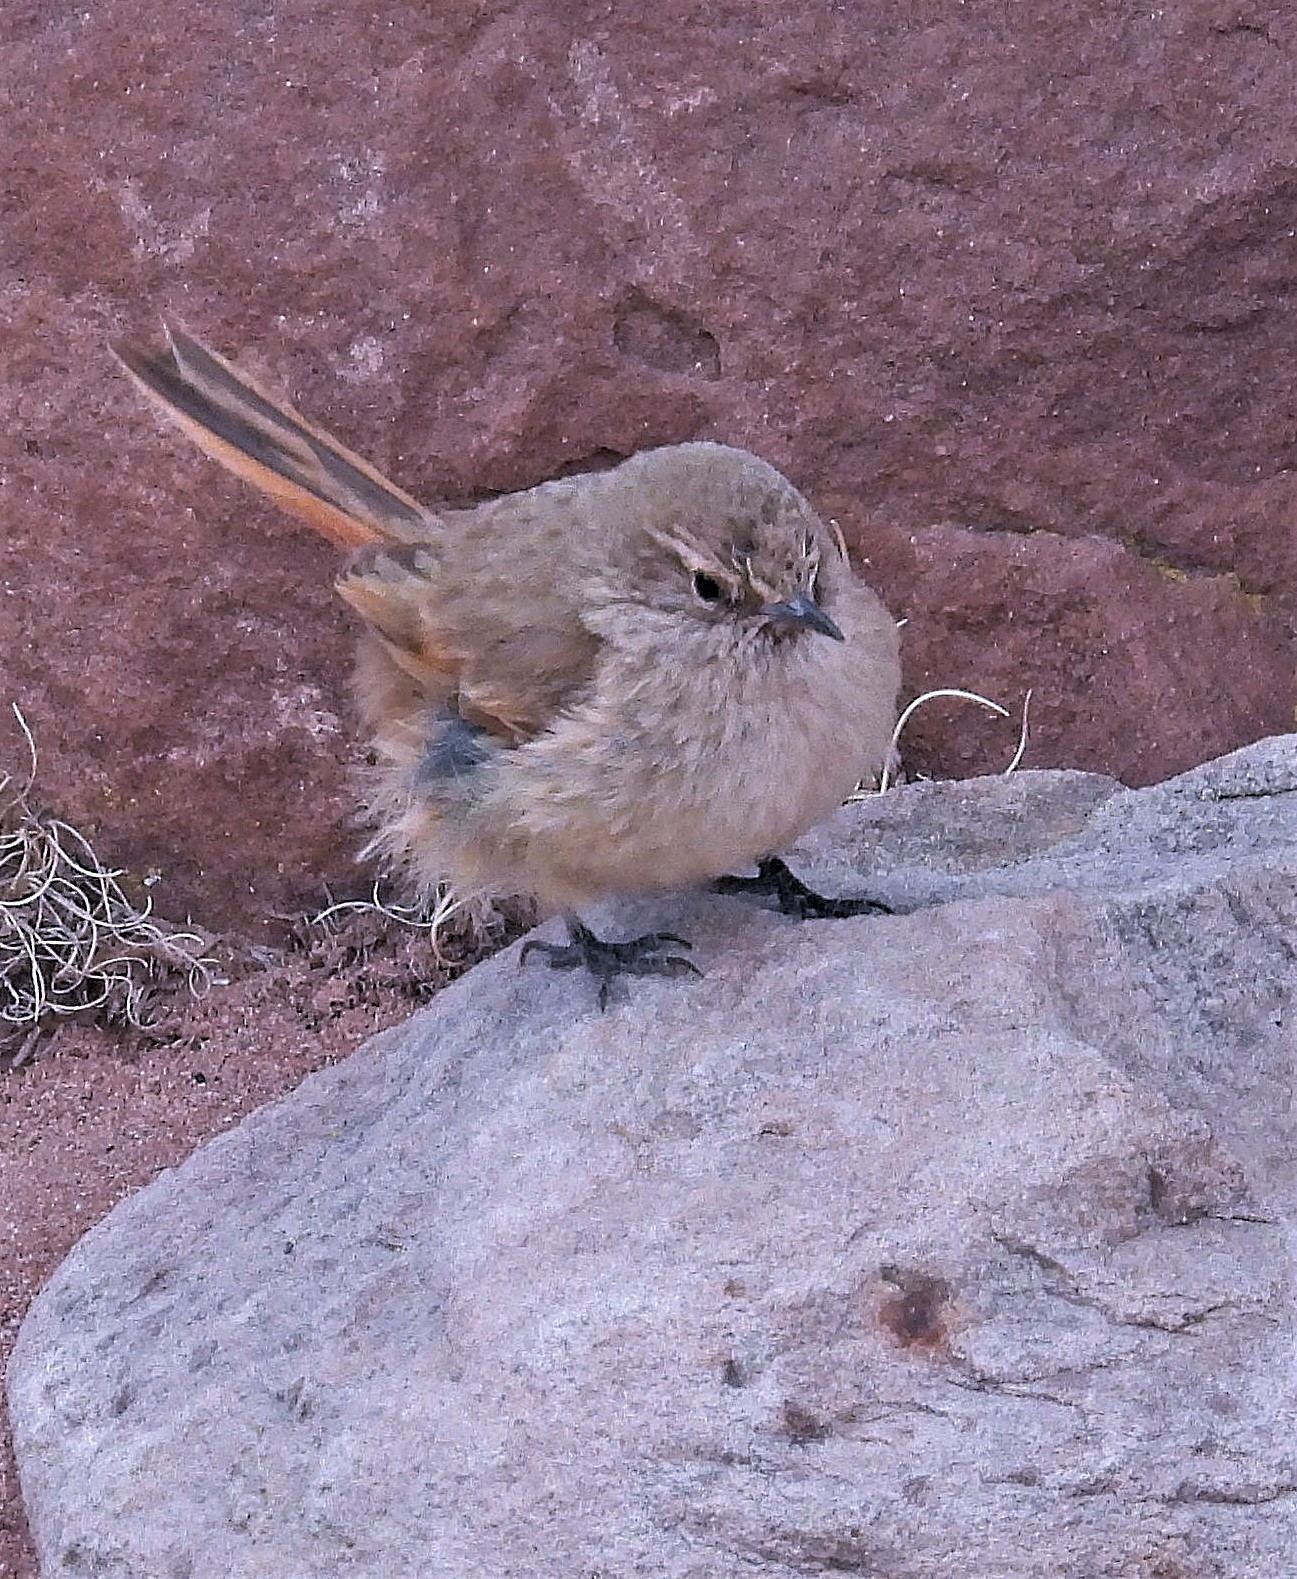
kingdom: Animalia
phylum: Chordata
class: Aves
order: Passeriformes
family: Furnariidae
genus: Asthenes
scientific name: Asthenes modesta
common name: Cordilleran canastero
